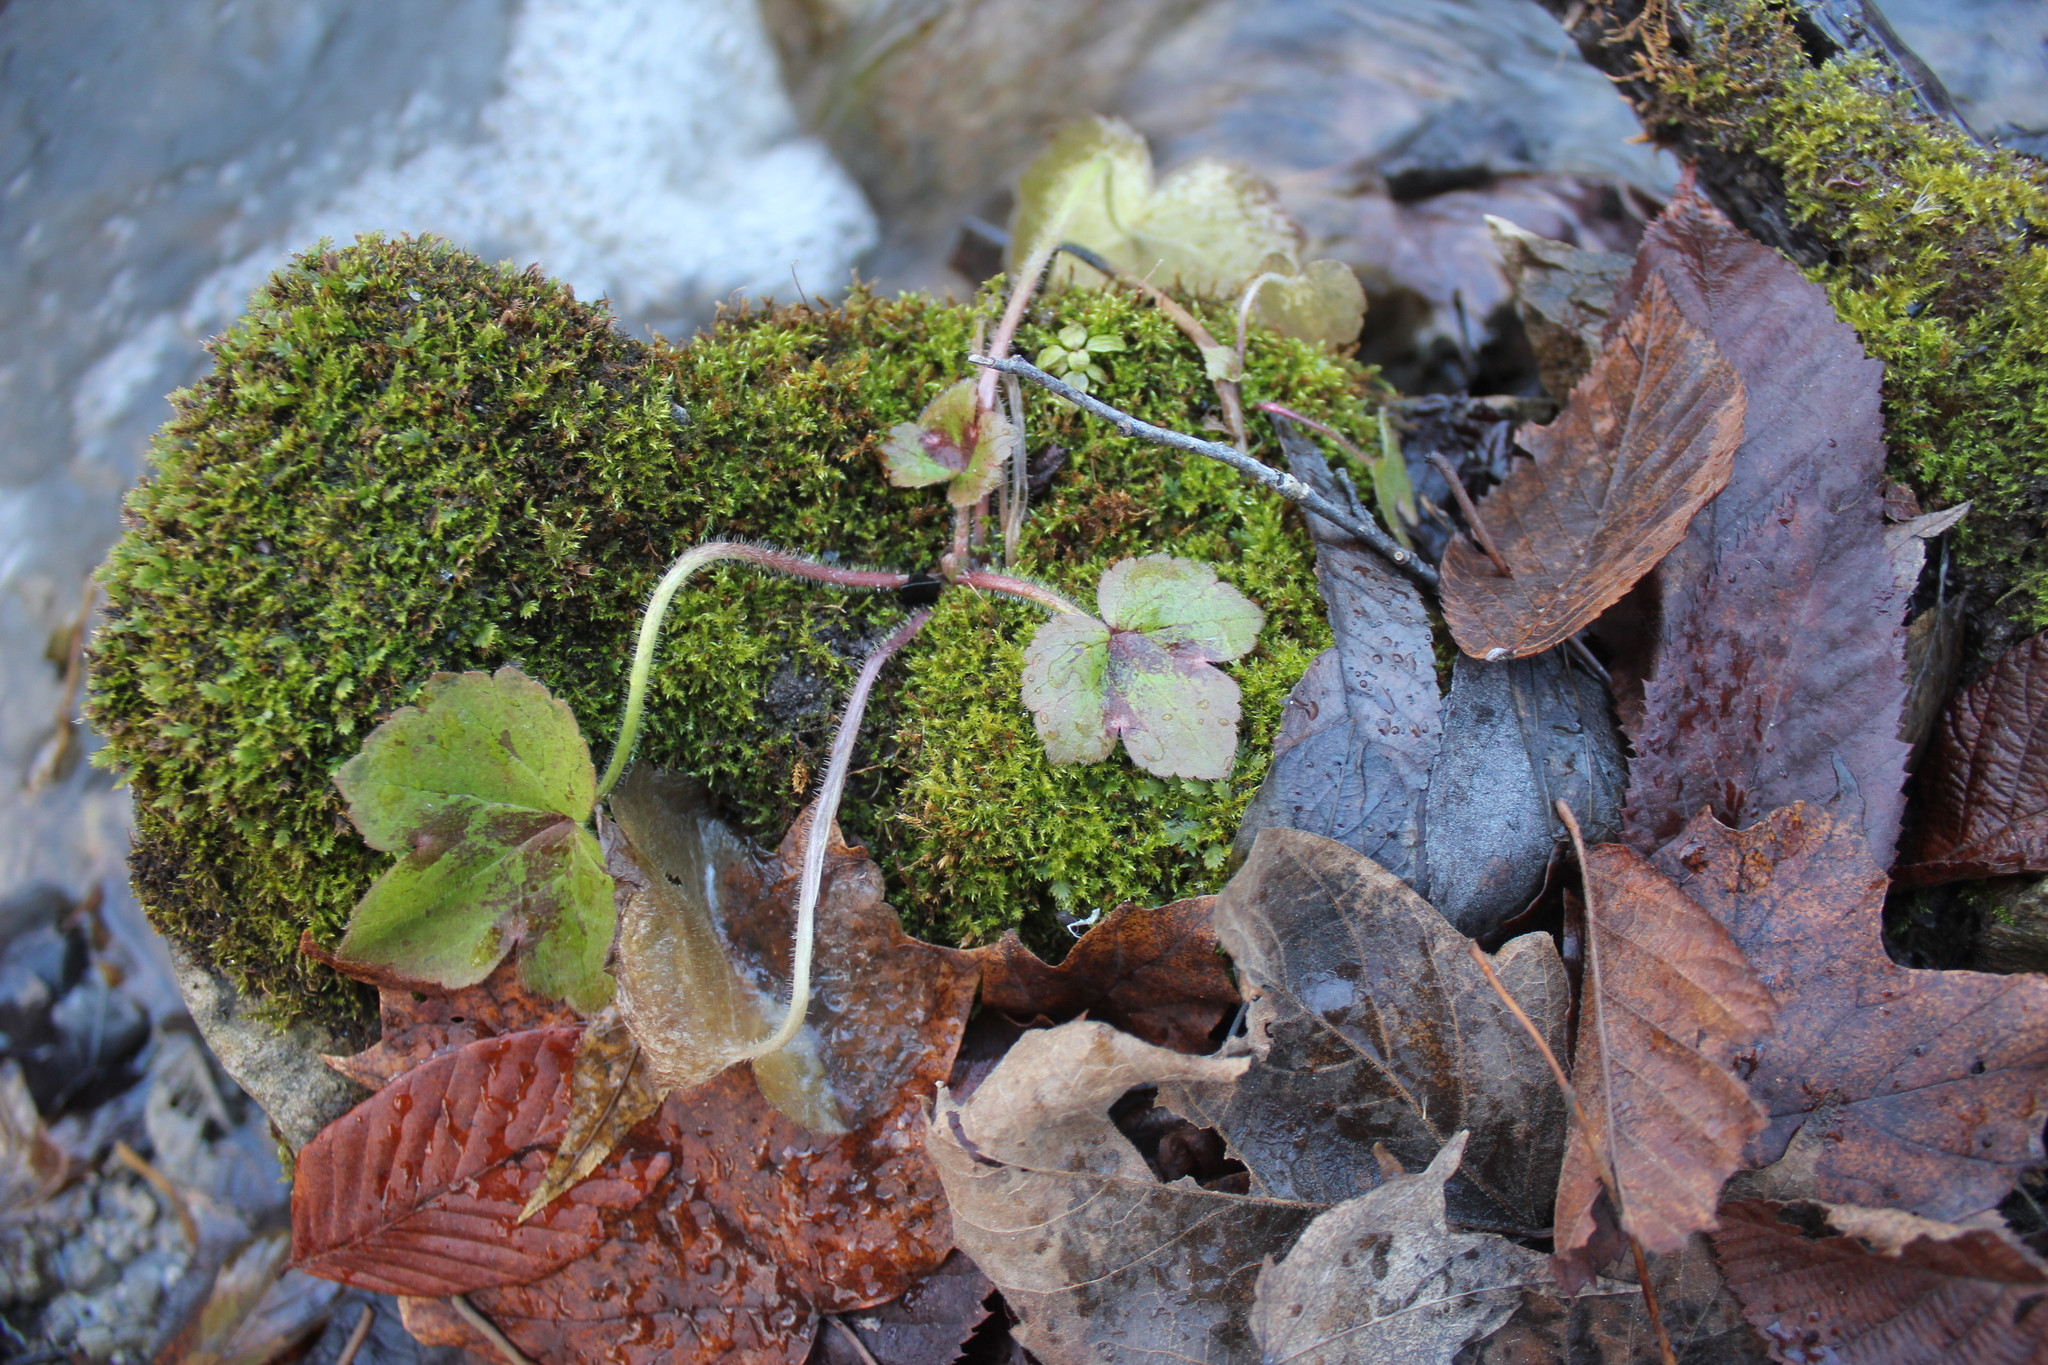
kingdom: Plantae
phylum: Tracheophyta
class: Magnoliopsida
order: Ranunculales
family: Ranunculaceae
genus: Ranunculus
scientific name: Ranunculus recurvatus
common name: Blisterwort
